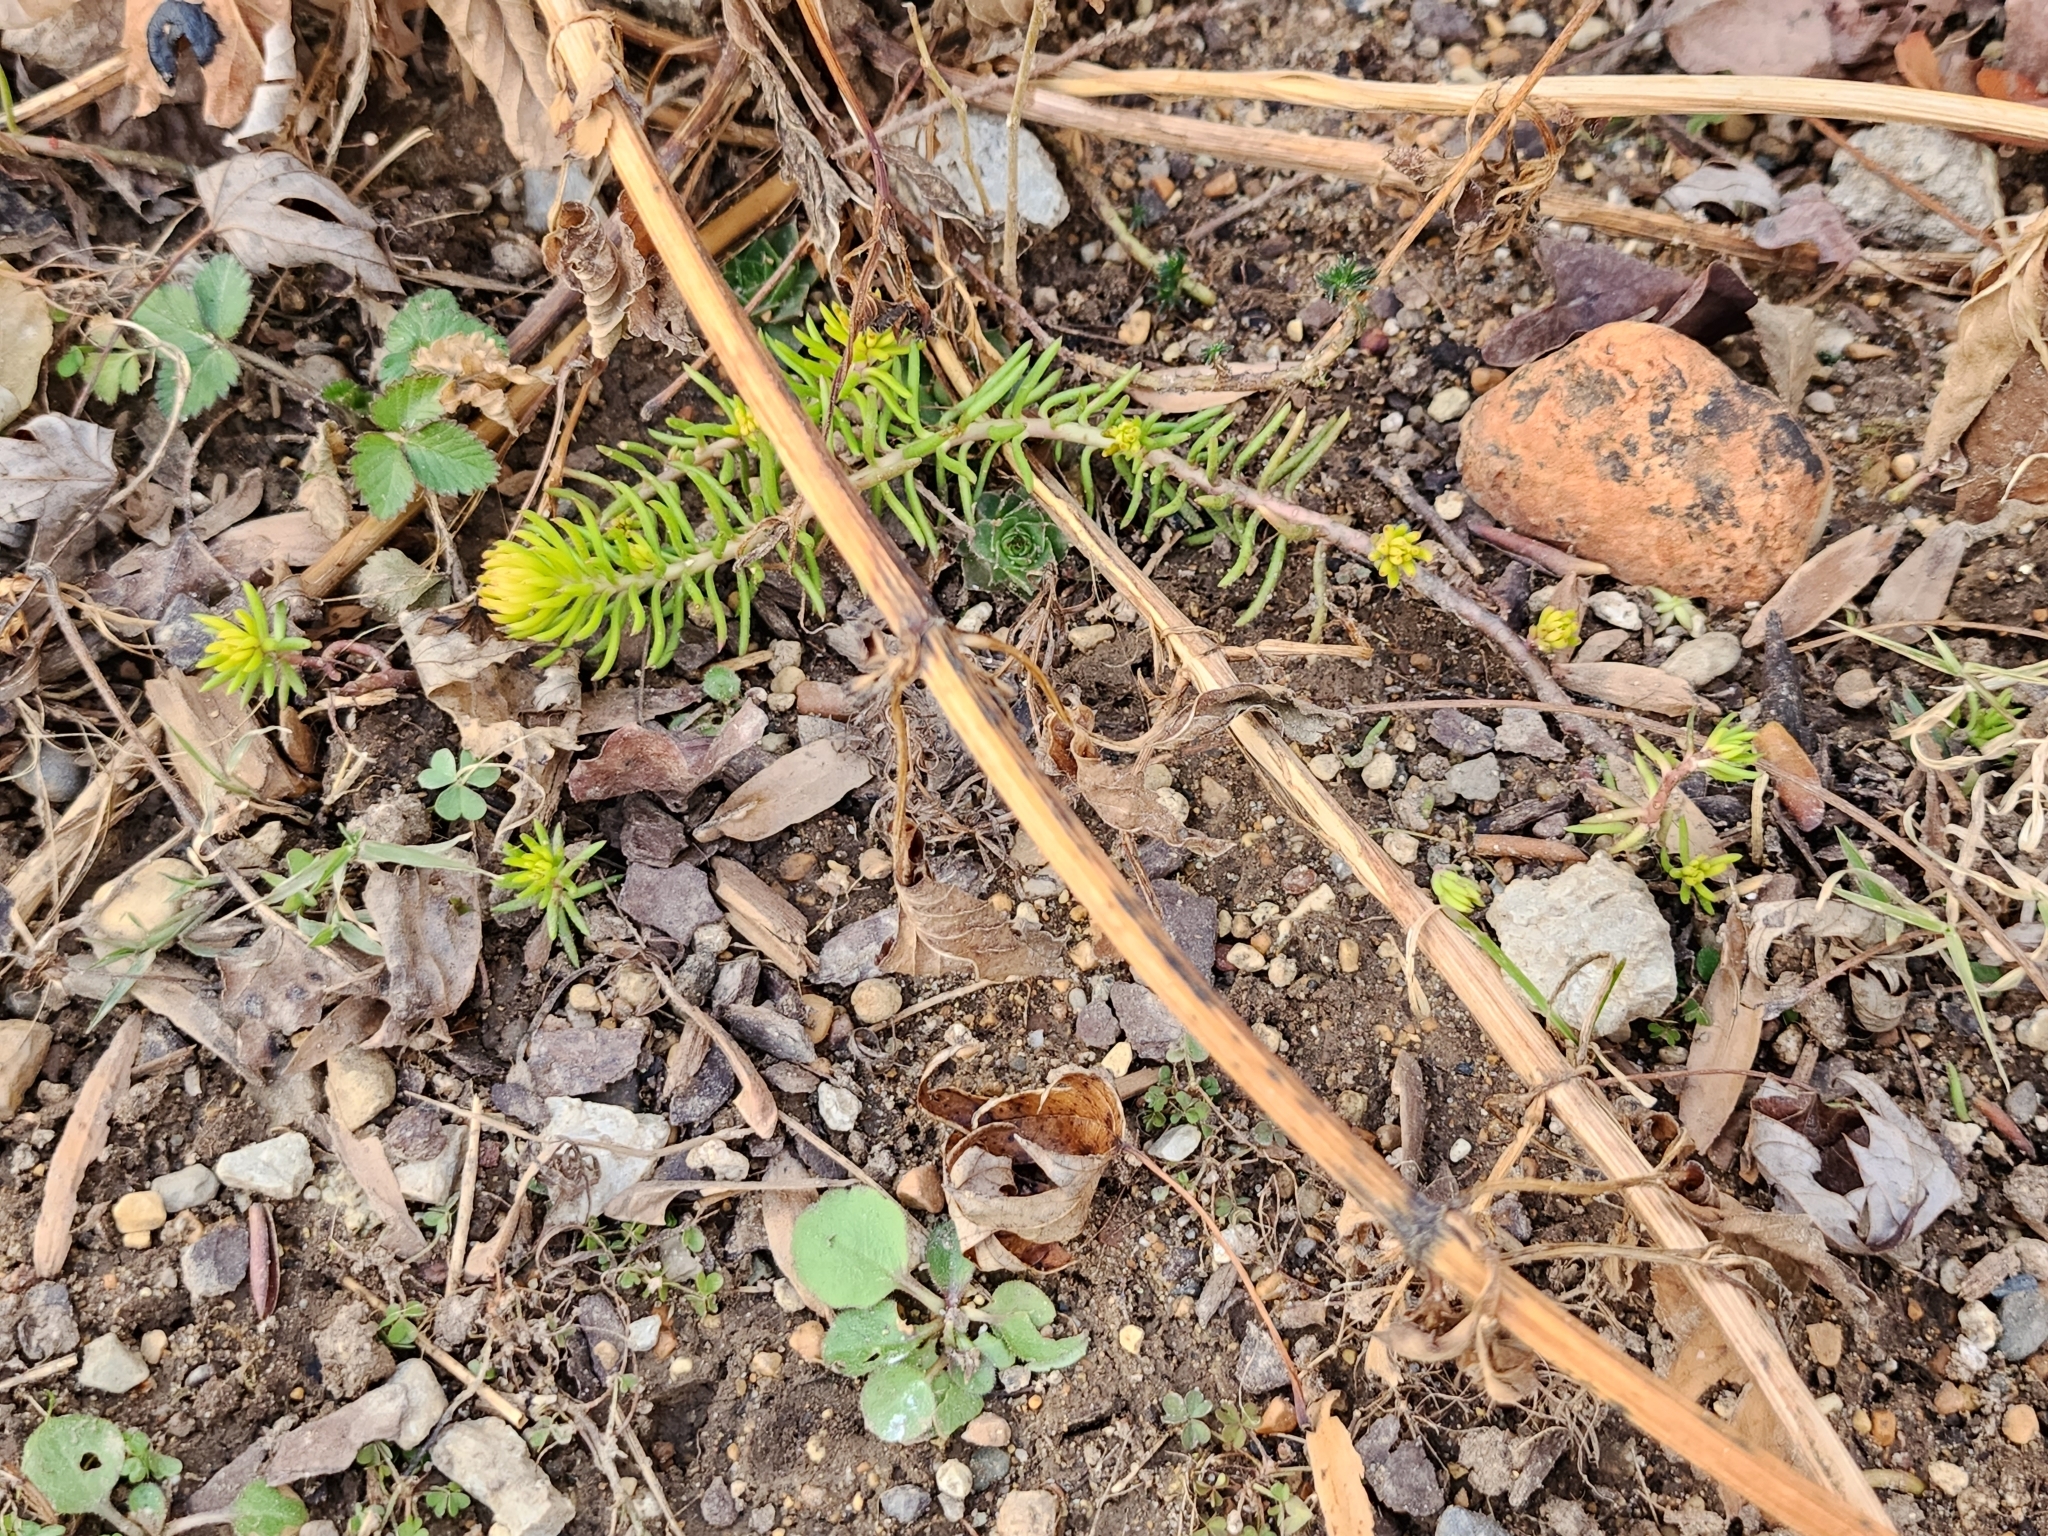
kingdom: Plantae
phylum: Tracheophyta
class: Magnoliopsida
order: Saxifragales
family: Crassulaceae
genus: Petrosedum
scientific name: Petrosedum rupestre
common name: Jenny's stonecrop
